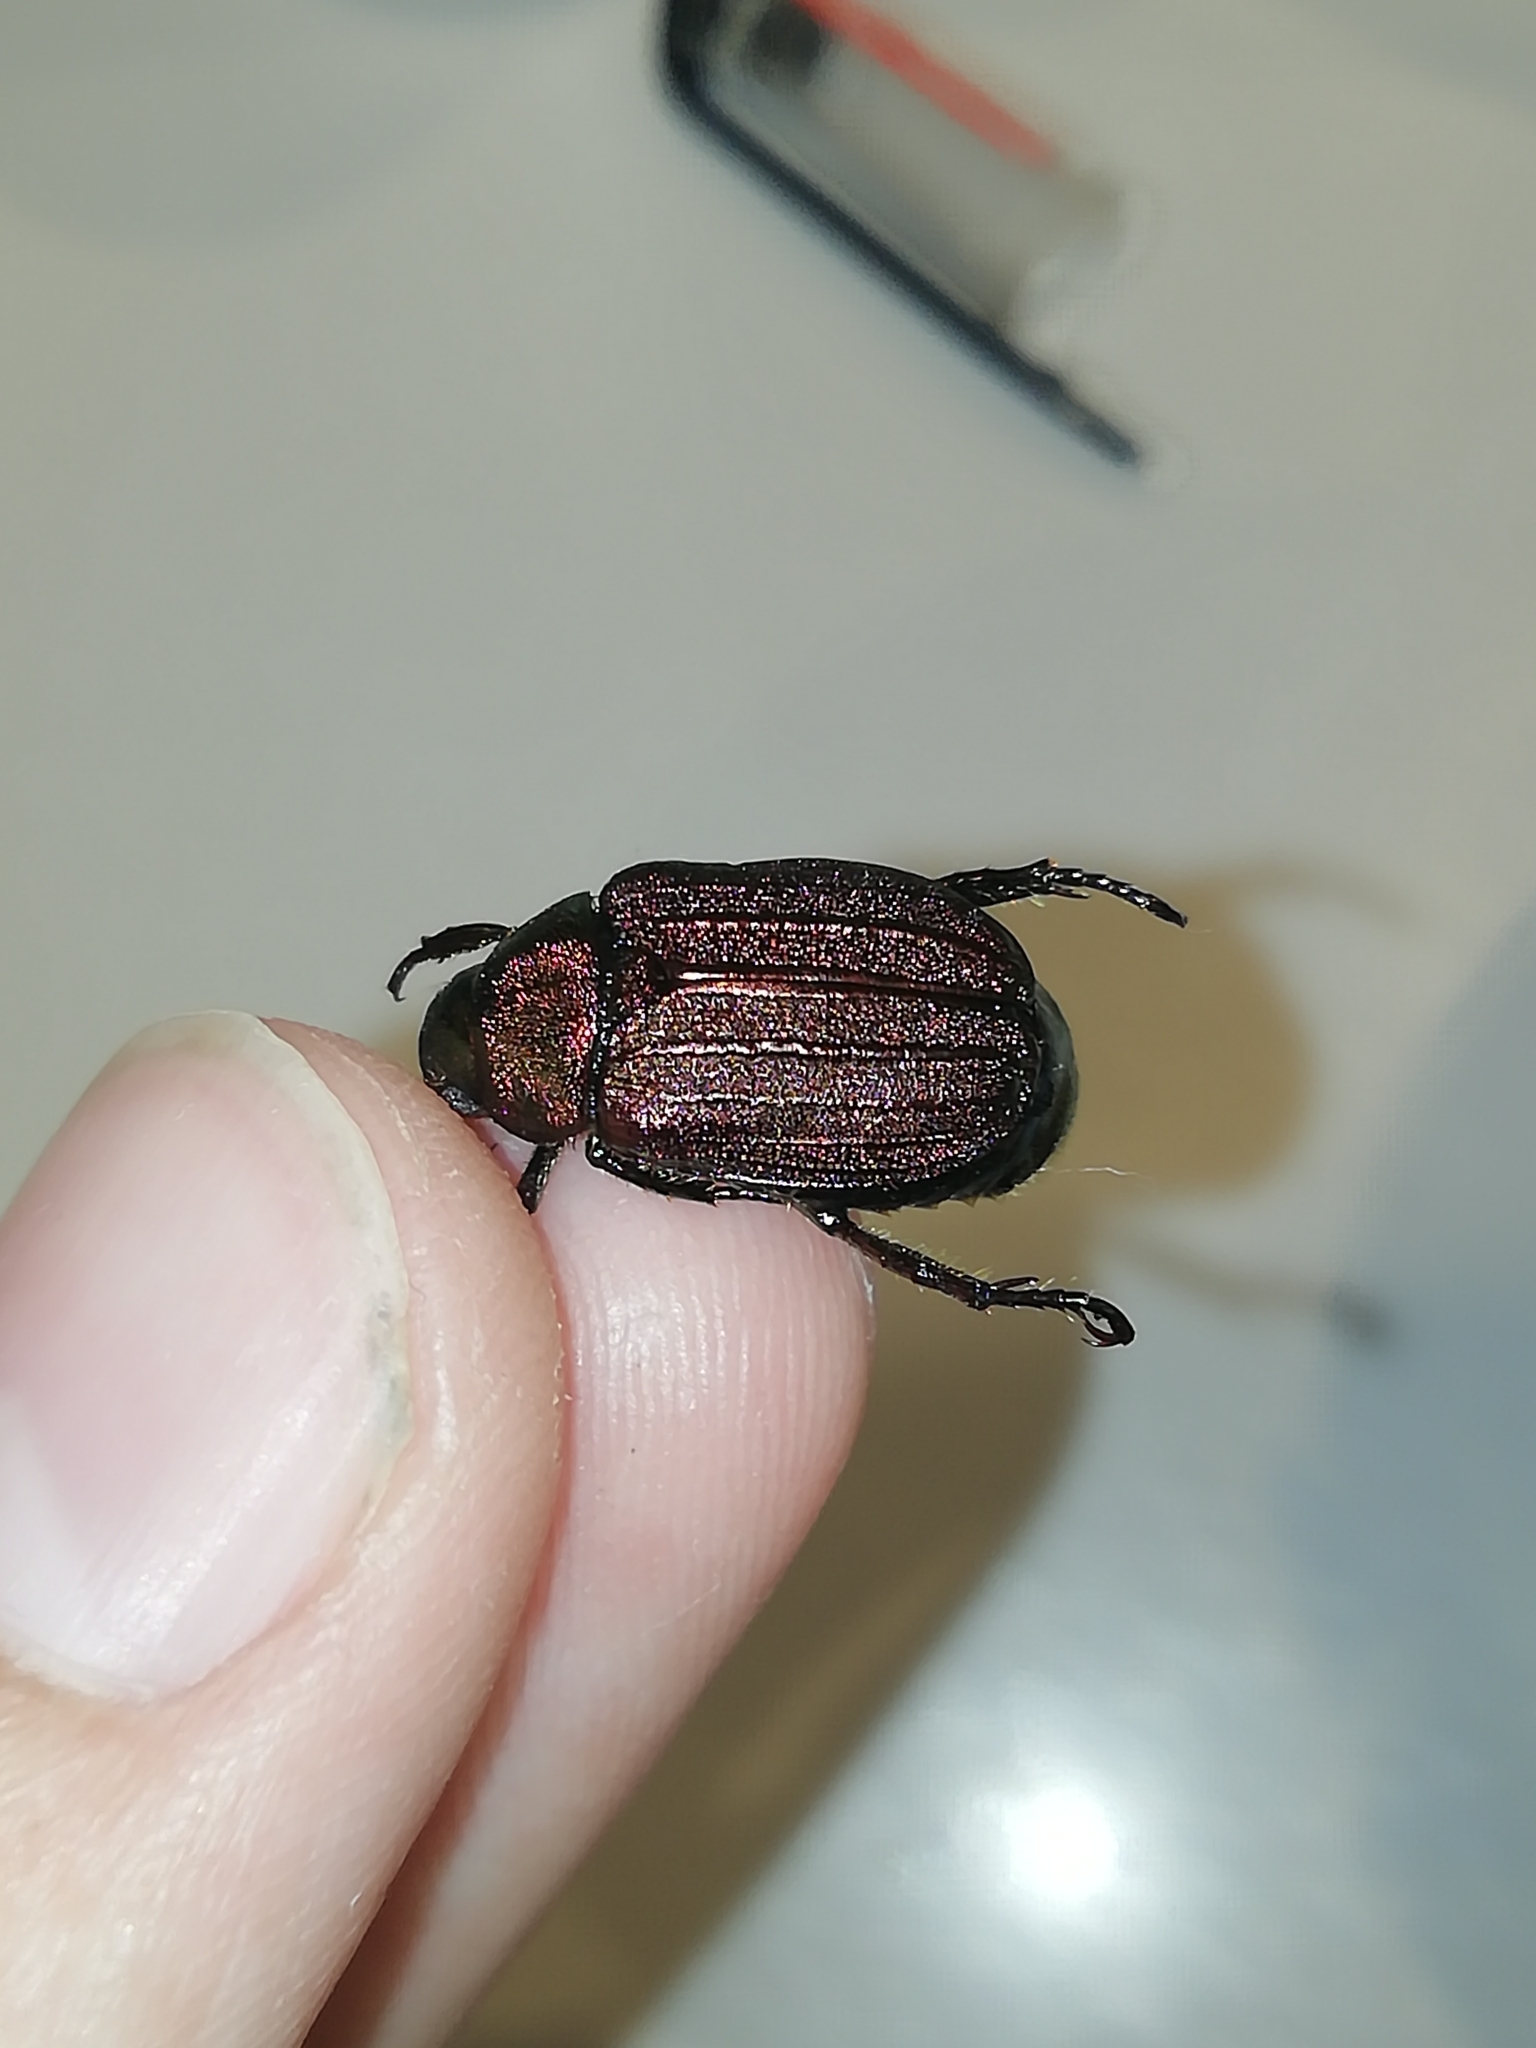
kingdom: Animalia
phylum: Arthropoda
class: Insecta
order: Coleoptera
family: Scarabaeidae
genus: Mimela
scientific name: Mimela holosericea
